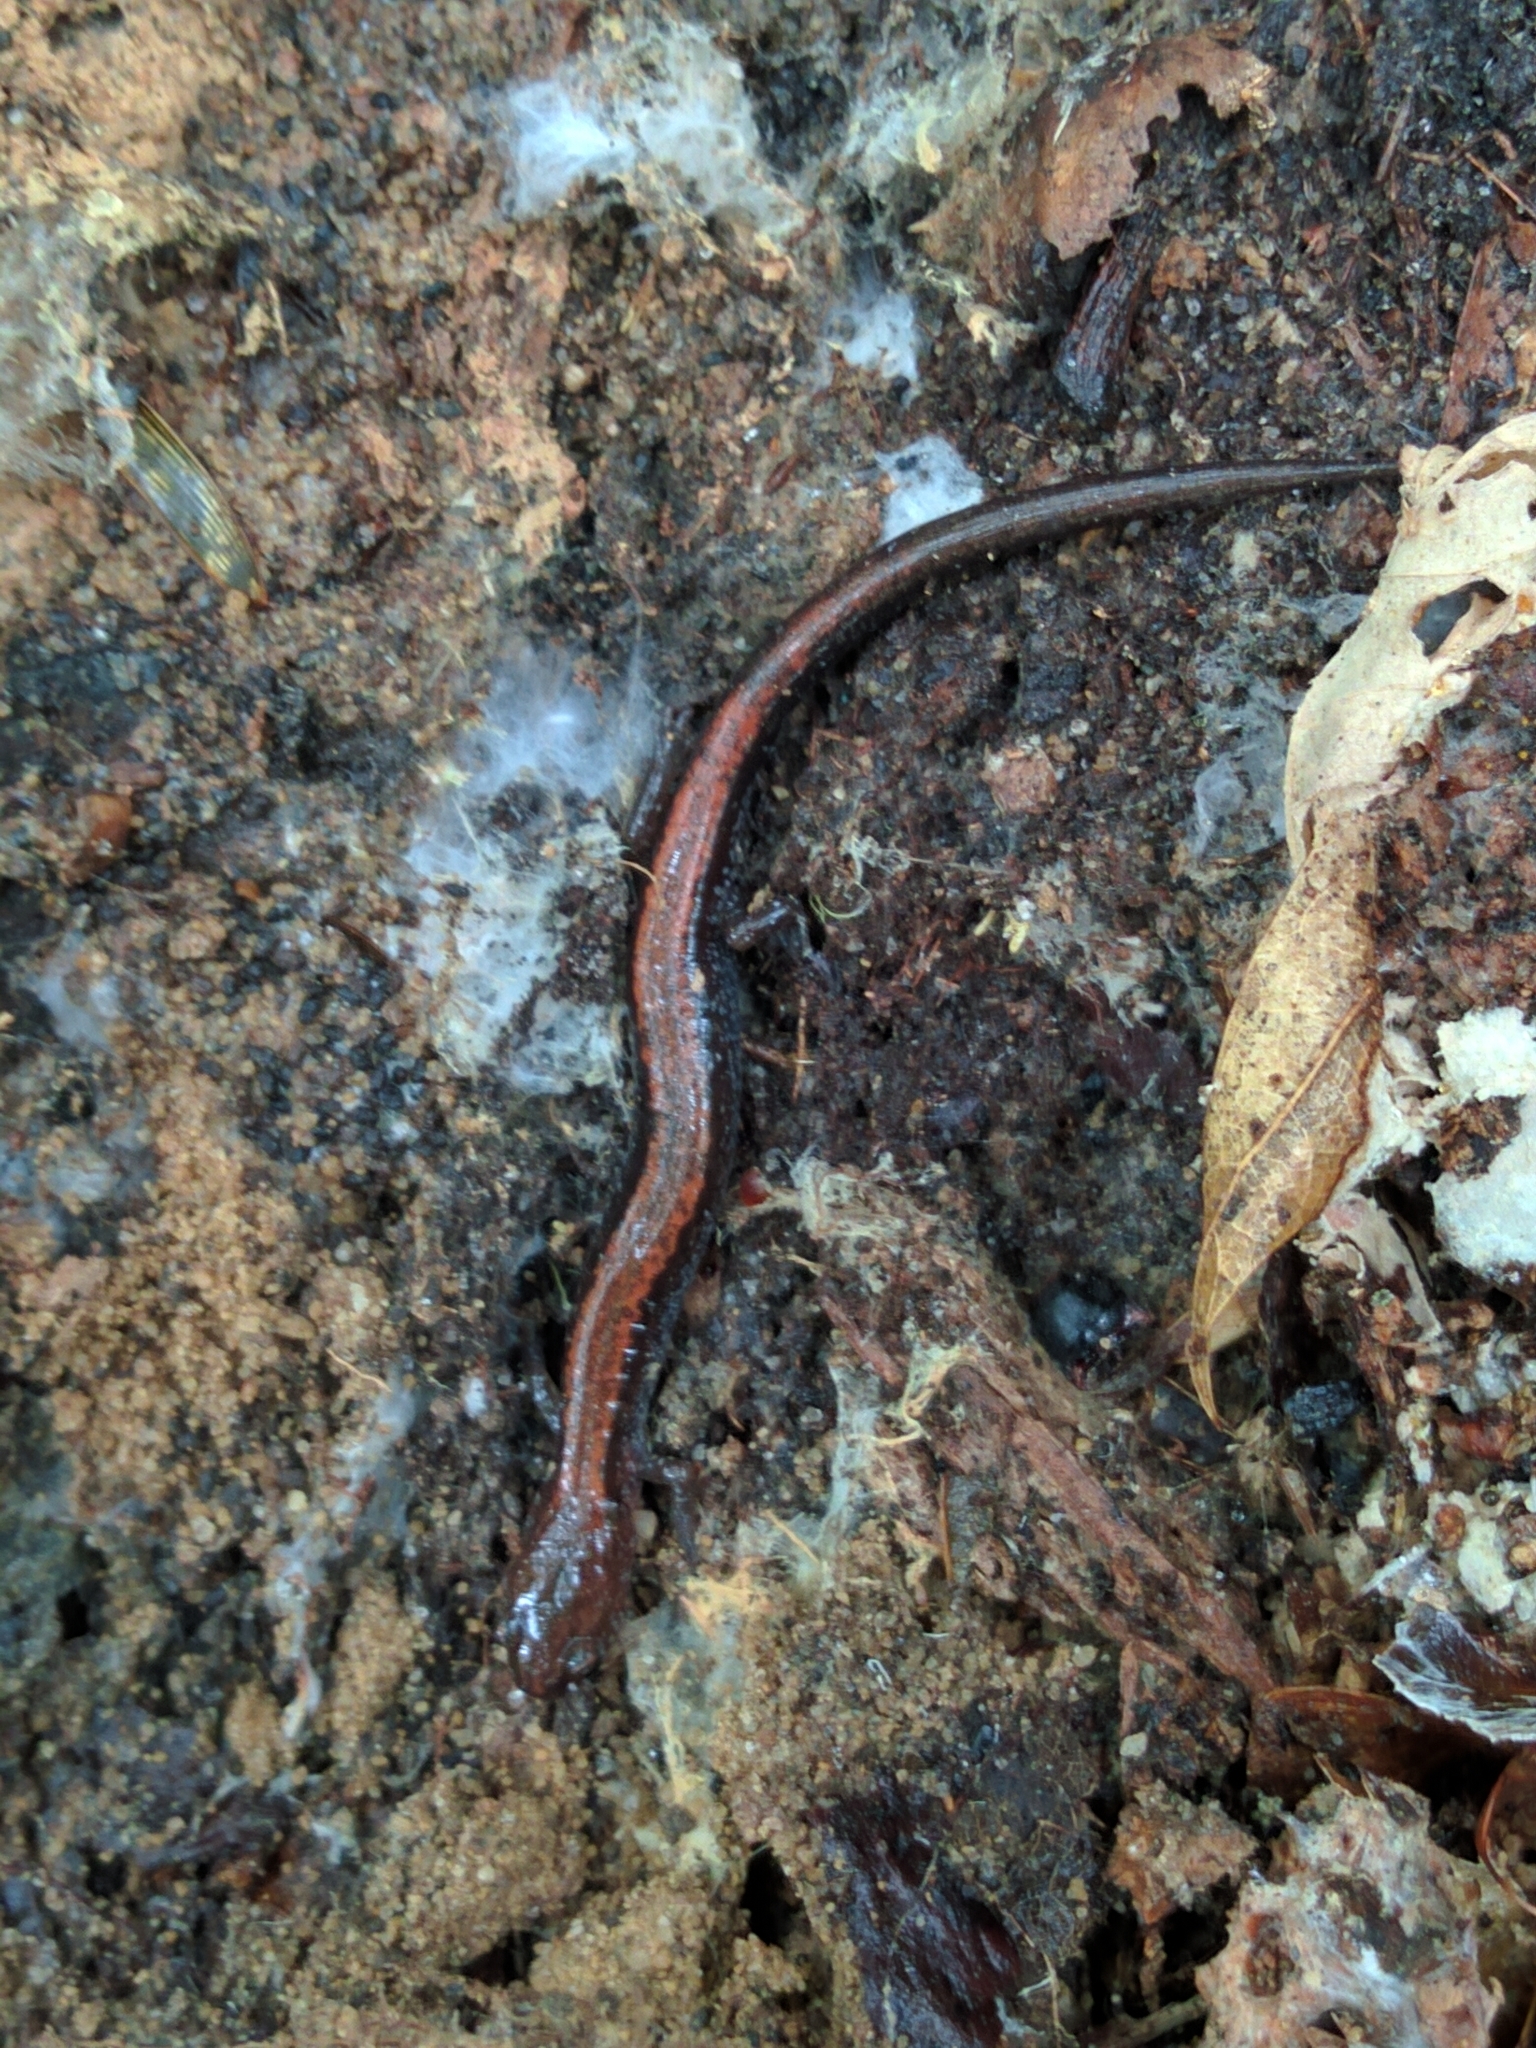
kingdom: Animalia
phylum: Chordata
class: Amphibia
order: Caudata
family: Plethodontidae
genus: Plethodon
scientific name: Plethodon cinereus
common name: Redback salamander
